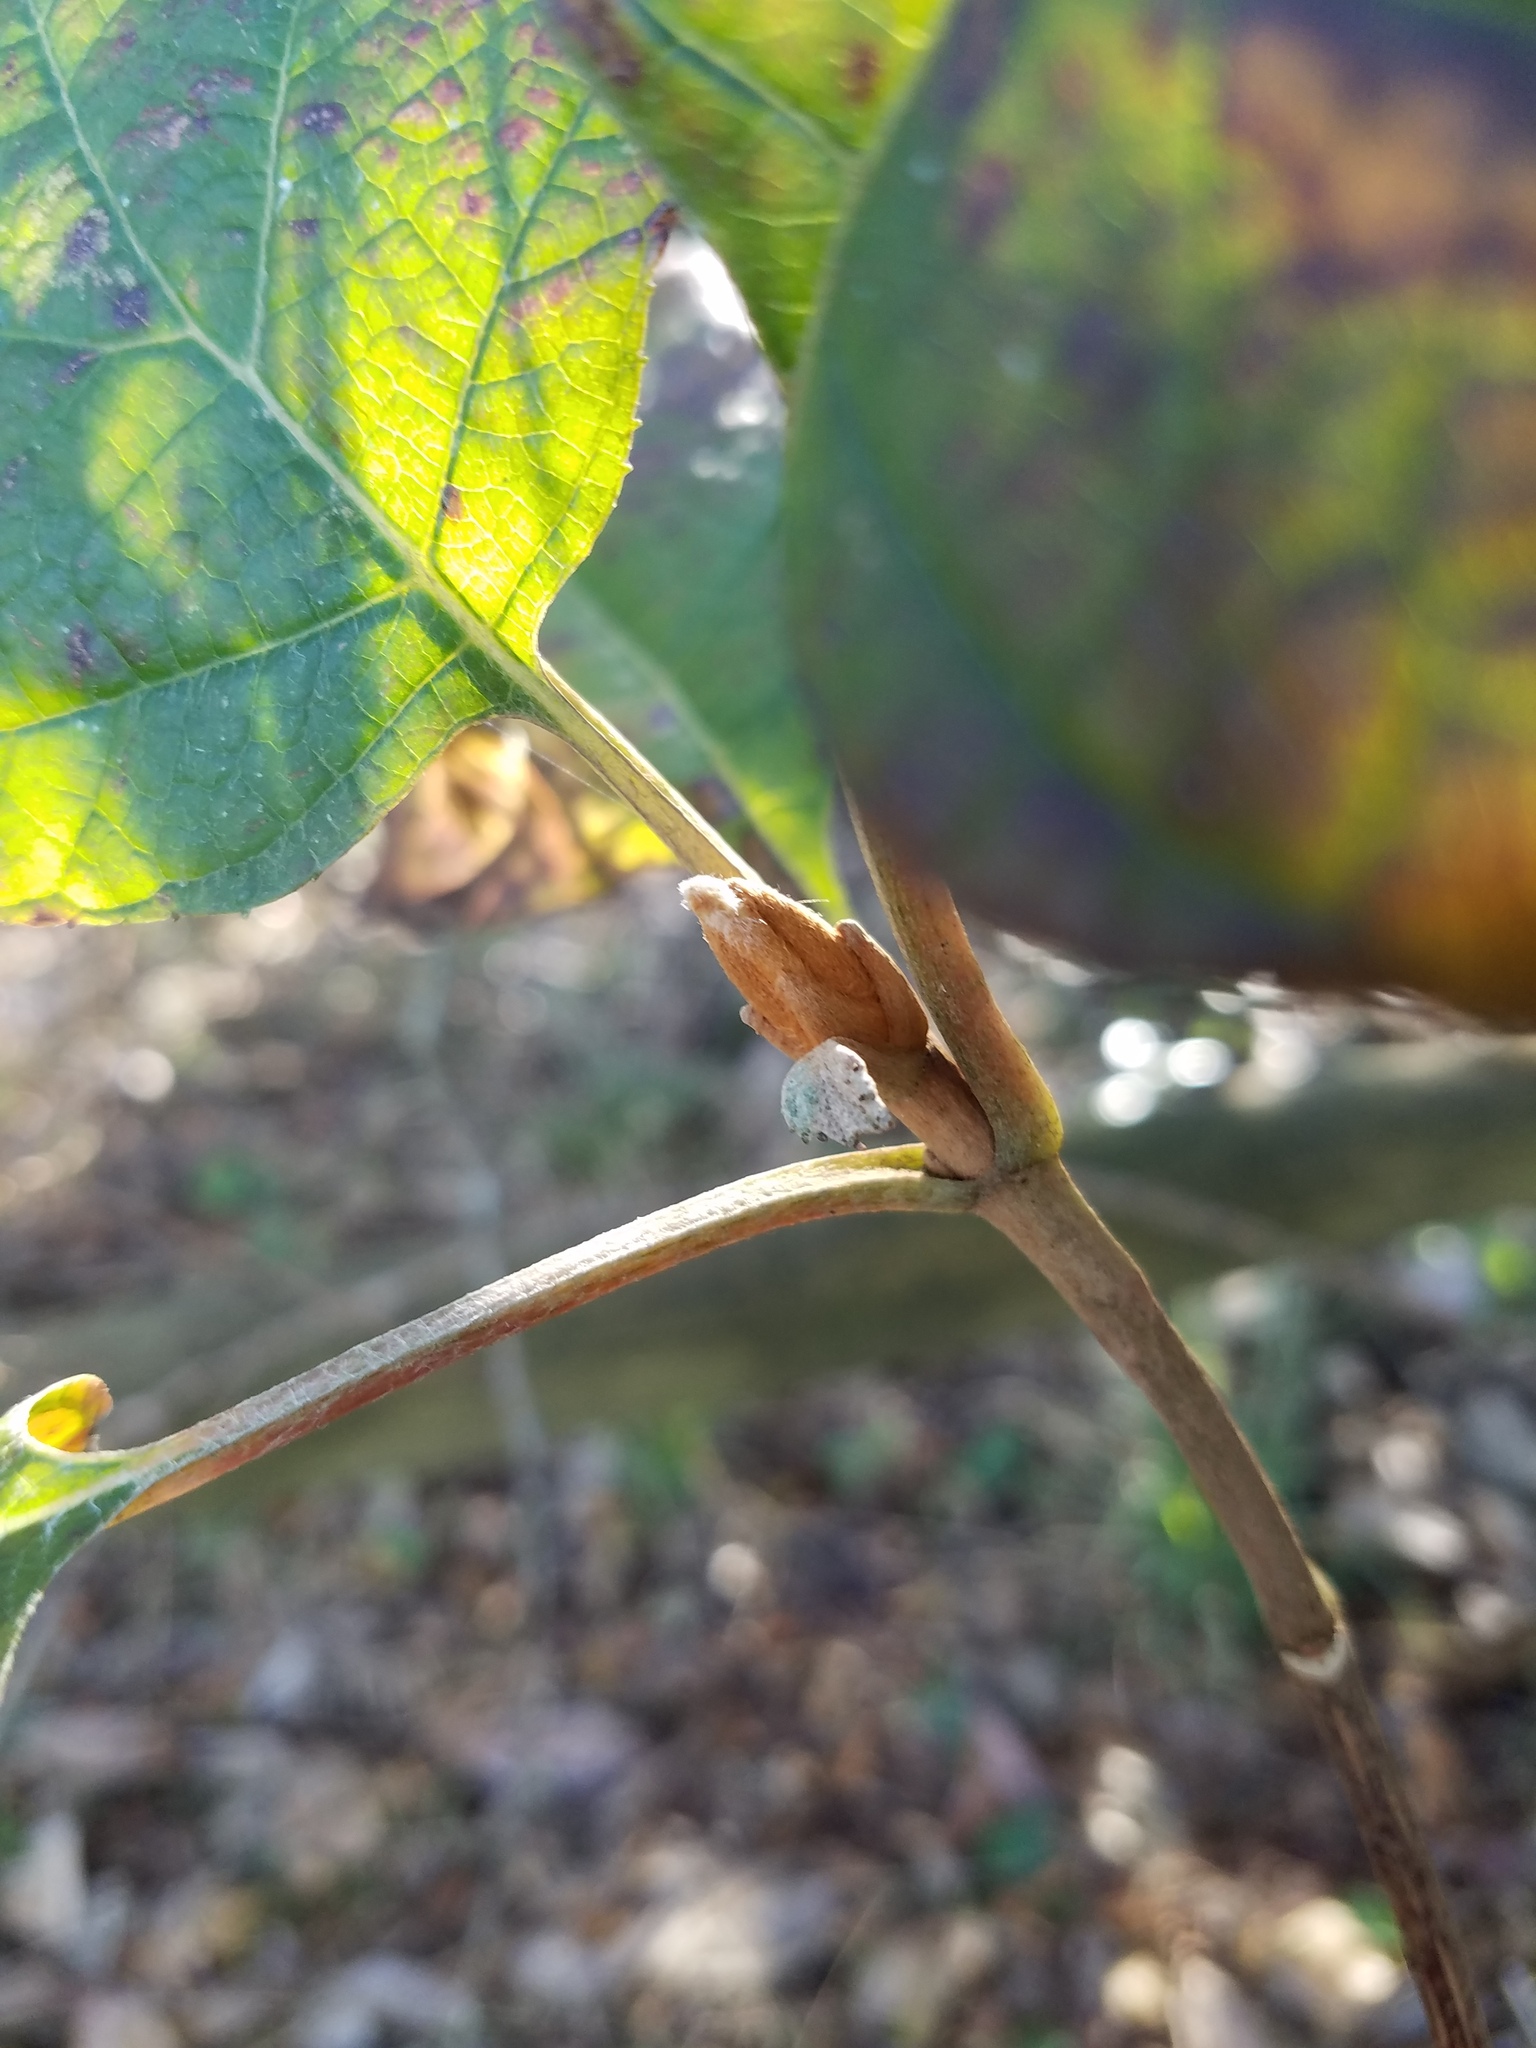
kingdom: Plantae
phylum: Tracheophyta
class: Magnoliopsida
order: Cornales
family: Hydrangeaceae
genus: Hydrangea
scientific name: Hydrangea quercifolia
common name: Oak-leaf hydrangea
